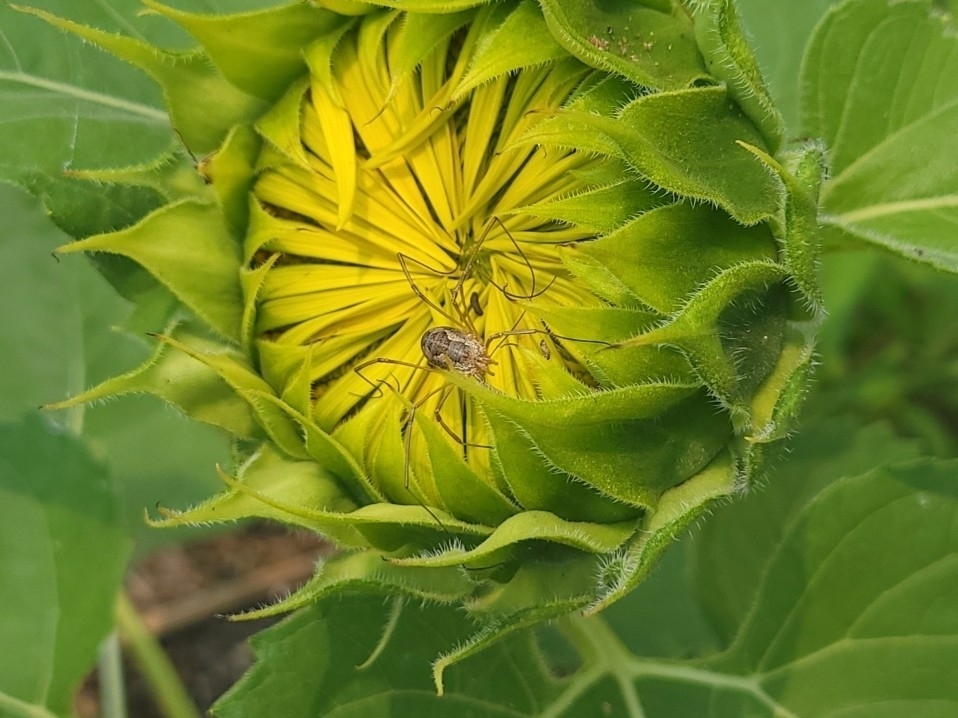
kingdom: Animalia
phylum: Arthropoda
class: Arachnida
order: Opiliones
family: Phalangiidae
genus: Phalangium
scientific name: Phalangium opilio
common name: Daddy longleg
